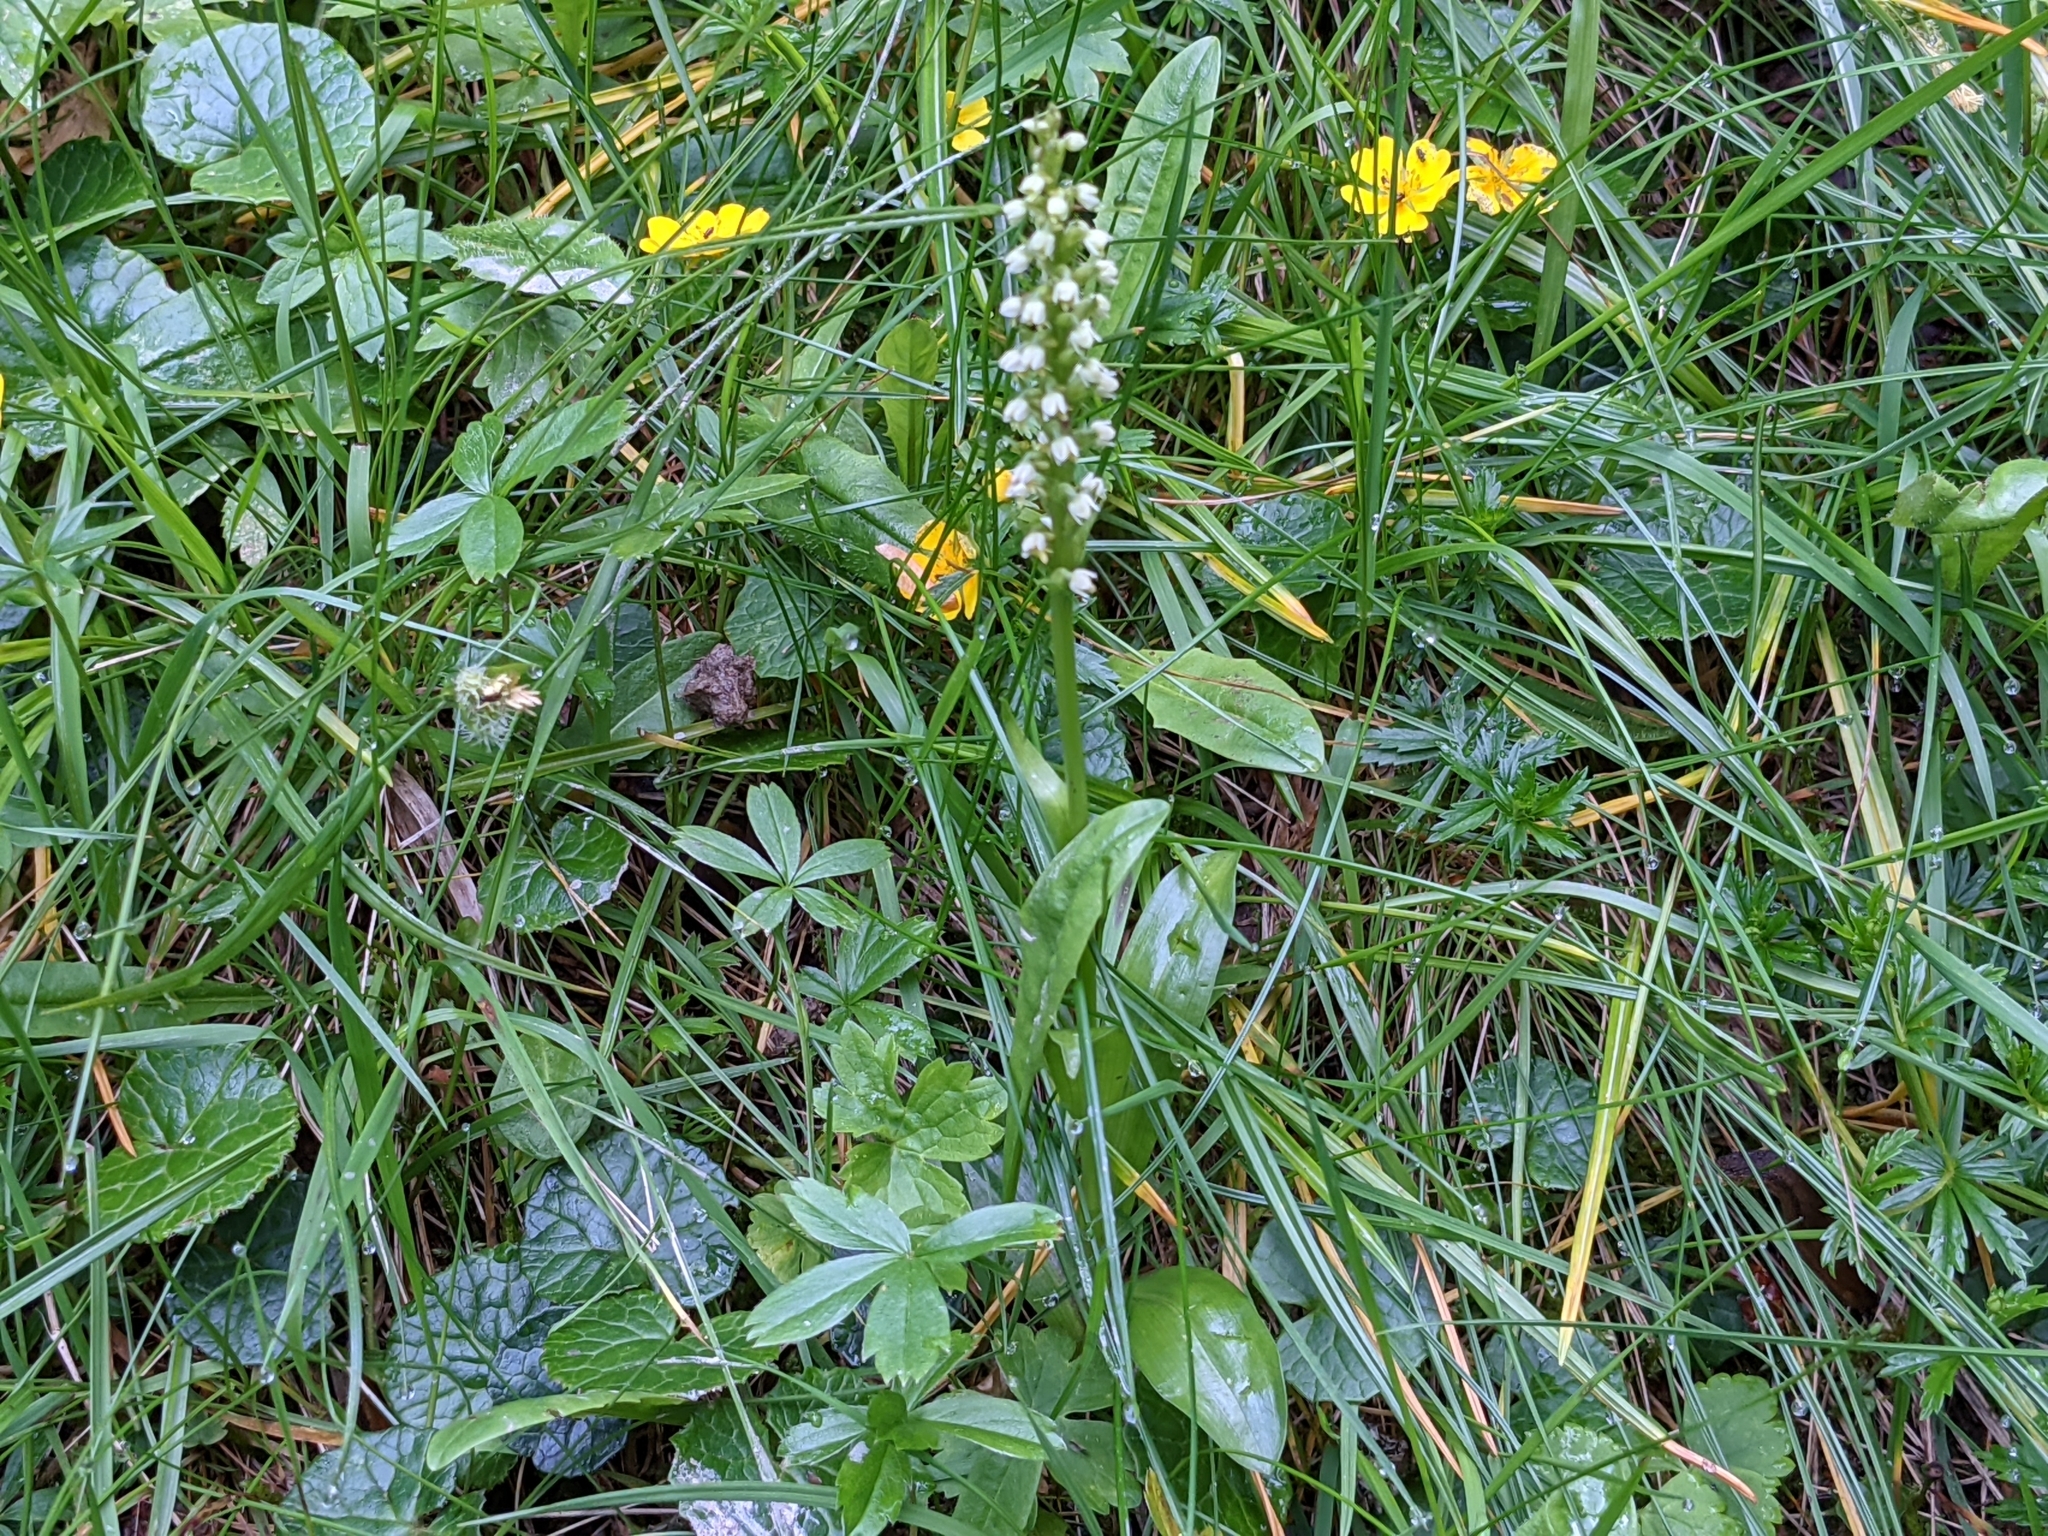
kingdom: Plantae
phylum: Tracheophyta
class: Liliopsida
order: Asparagales
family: Orchidaceae
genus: Pseudorchis
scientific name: Pseudorchis albida
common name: Small-white orchid
